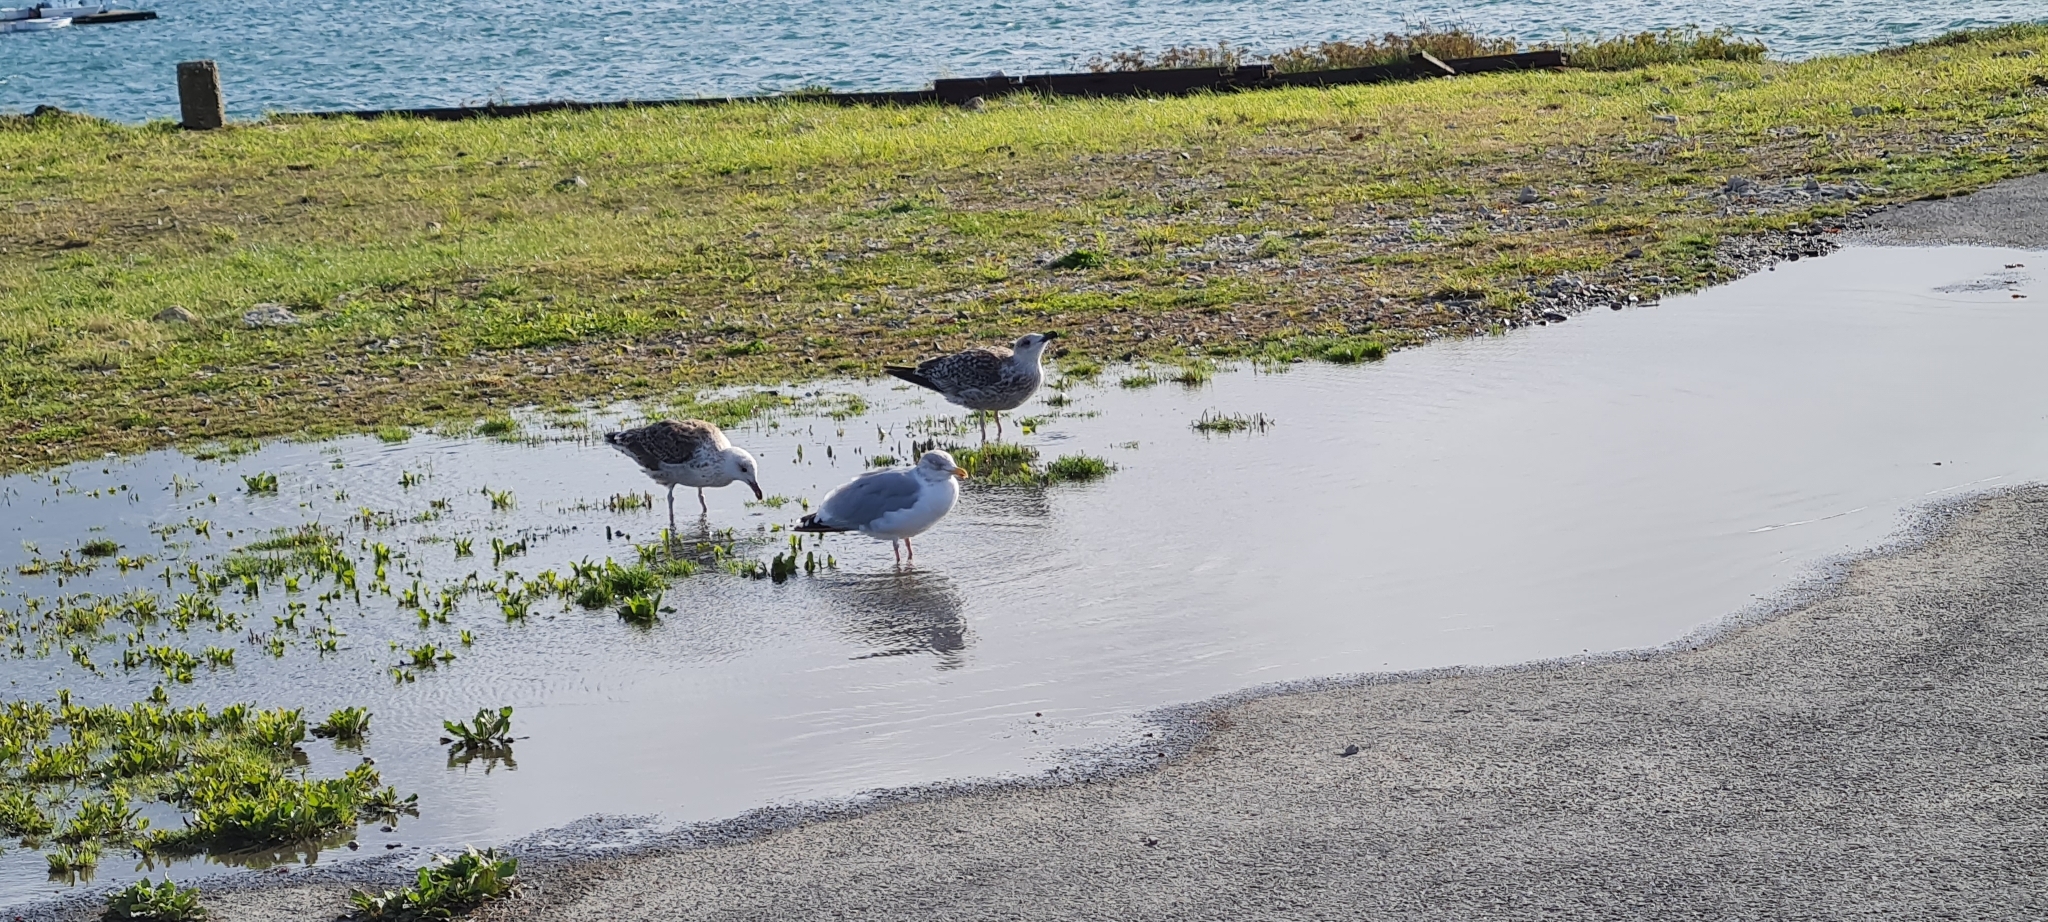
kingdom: Animalia
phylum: Chordata
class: Aves
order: Charadriiformes
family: Laridae
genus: Larus
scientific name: Larus argentatus
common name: Herring gull
